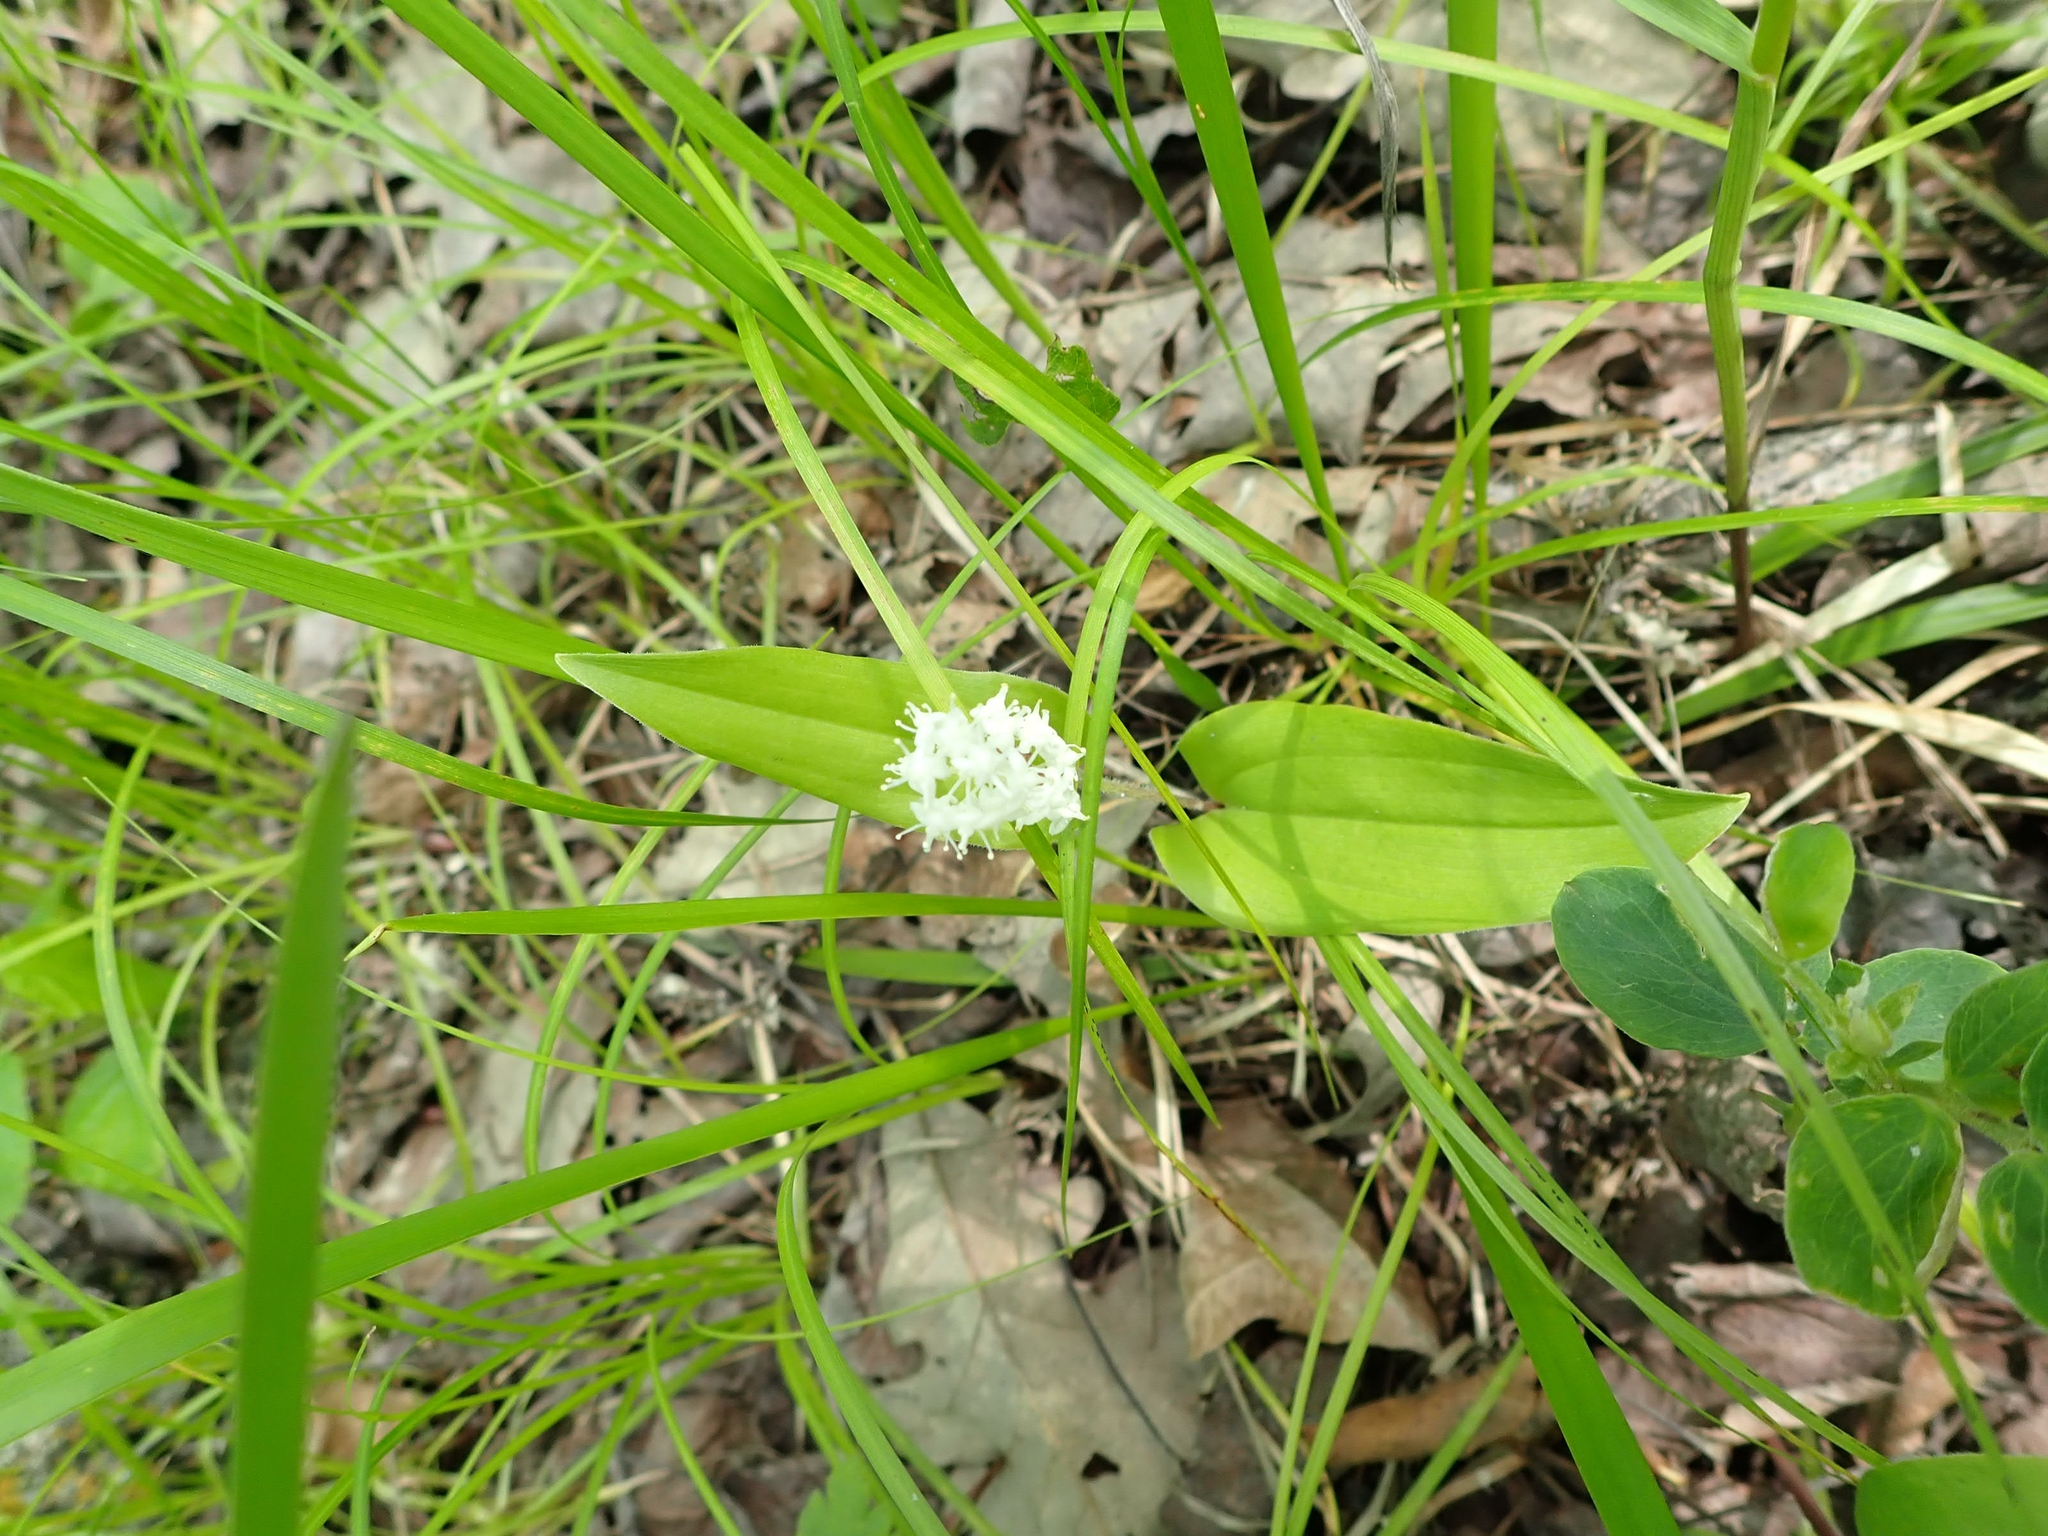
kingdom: Plantae
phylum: Tracheophyta
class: Liliopsida
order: Asparagales
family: Asparagaceae
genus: Maianthemum
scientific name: Maianthemum canadense
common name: False lily-of-the-valley
